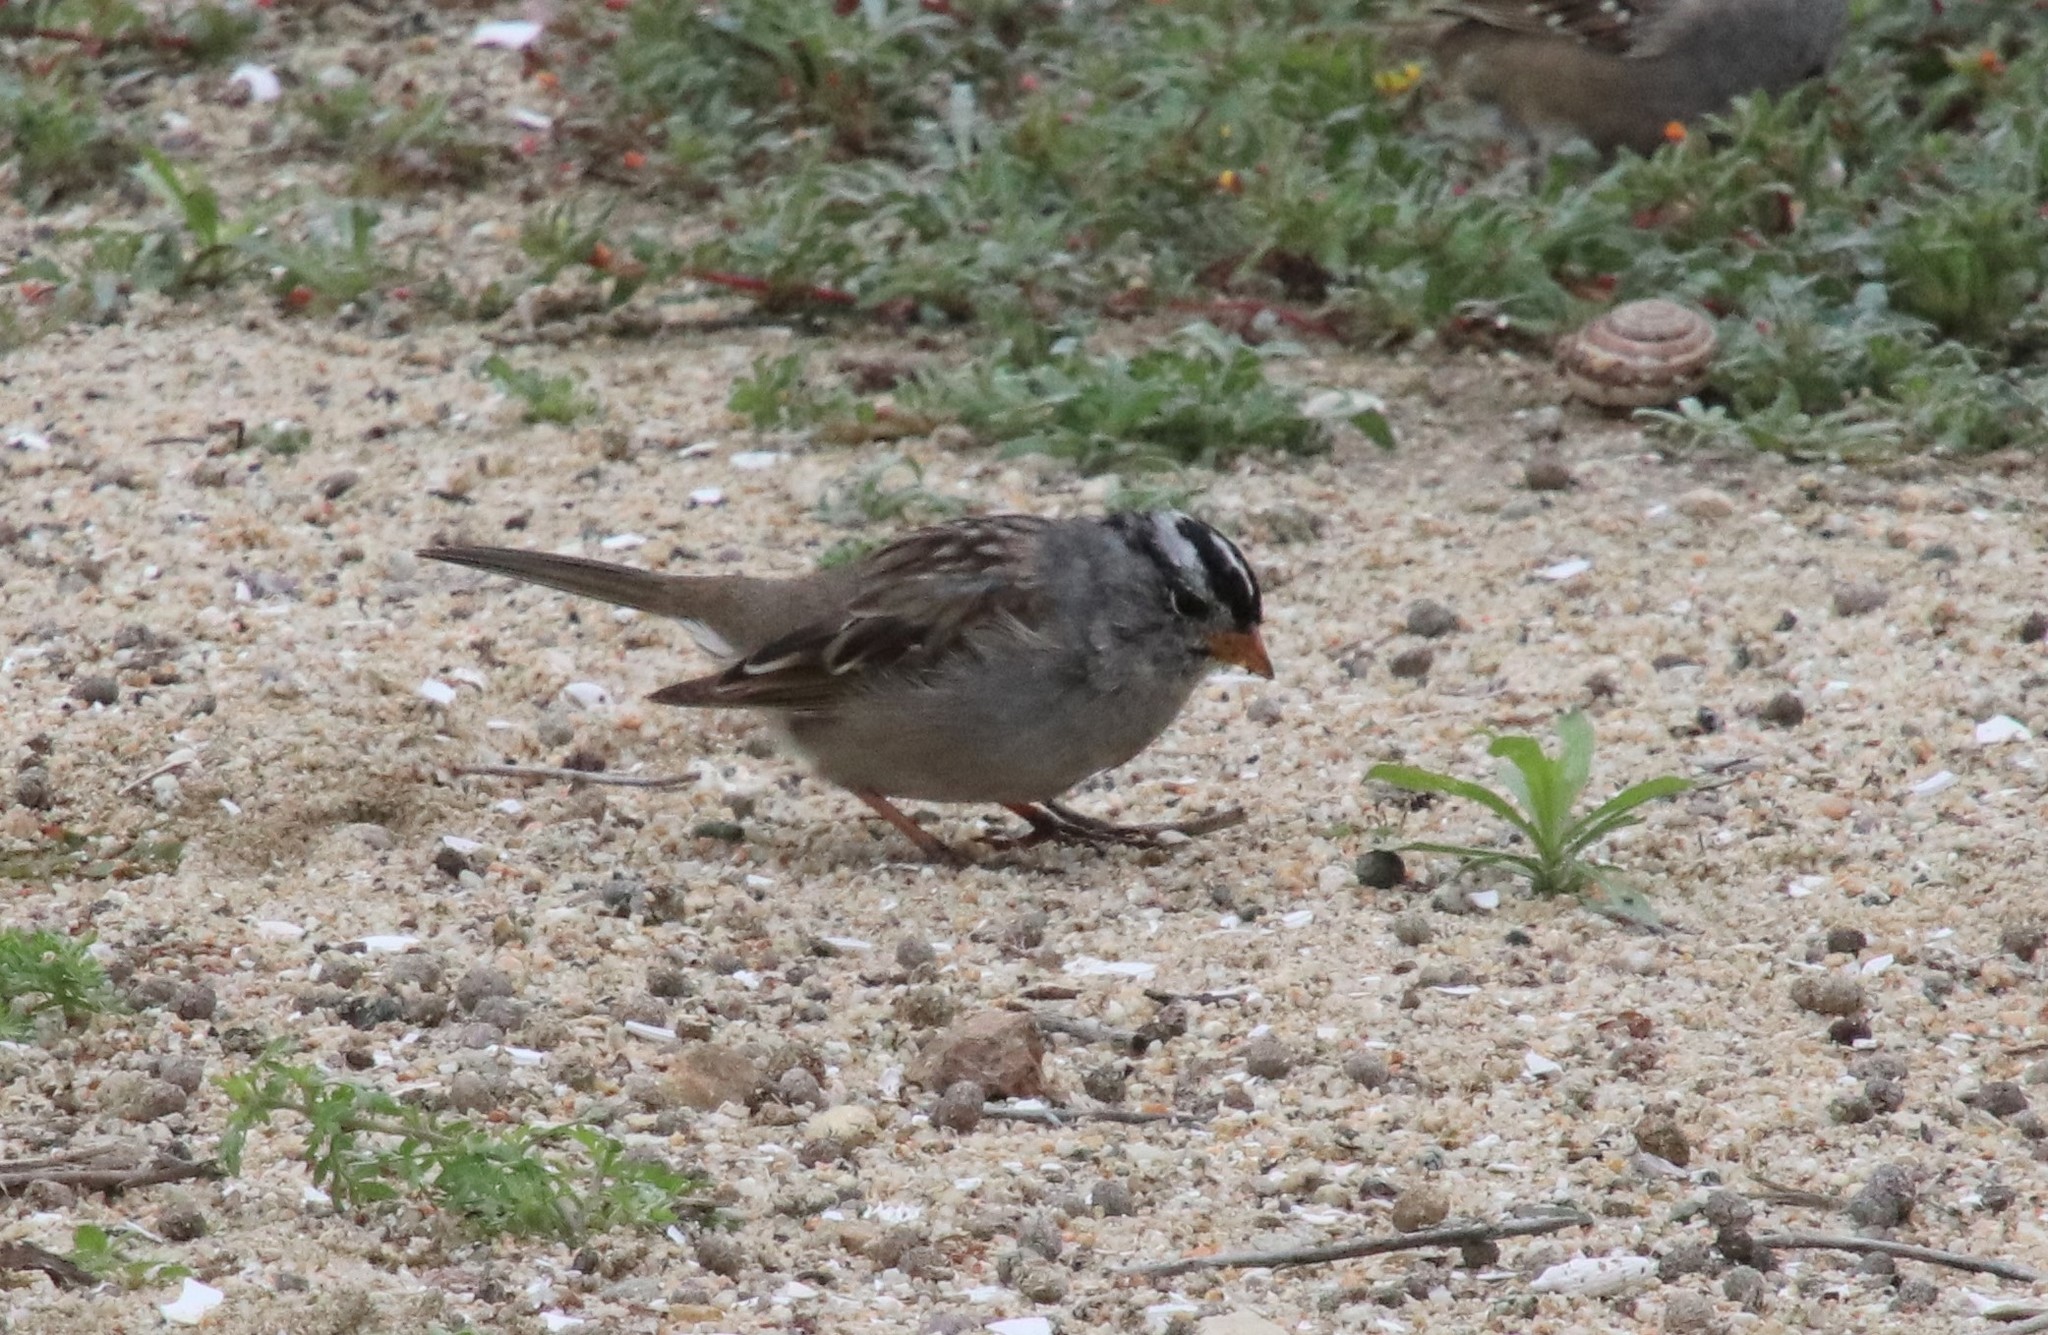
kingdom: Animalia
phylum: Chordata
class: Aves
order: Passeriformes
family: Passerellidae
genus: Zonotrichia
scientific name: Zonotrichia leucophrys
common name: White-crowned sparrow
